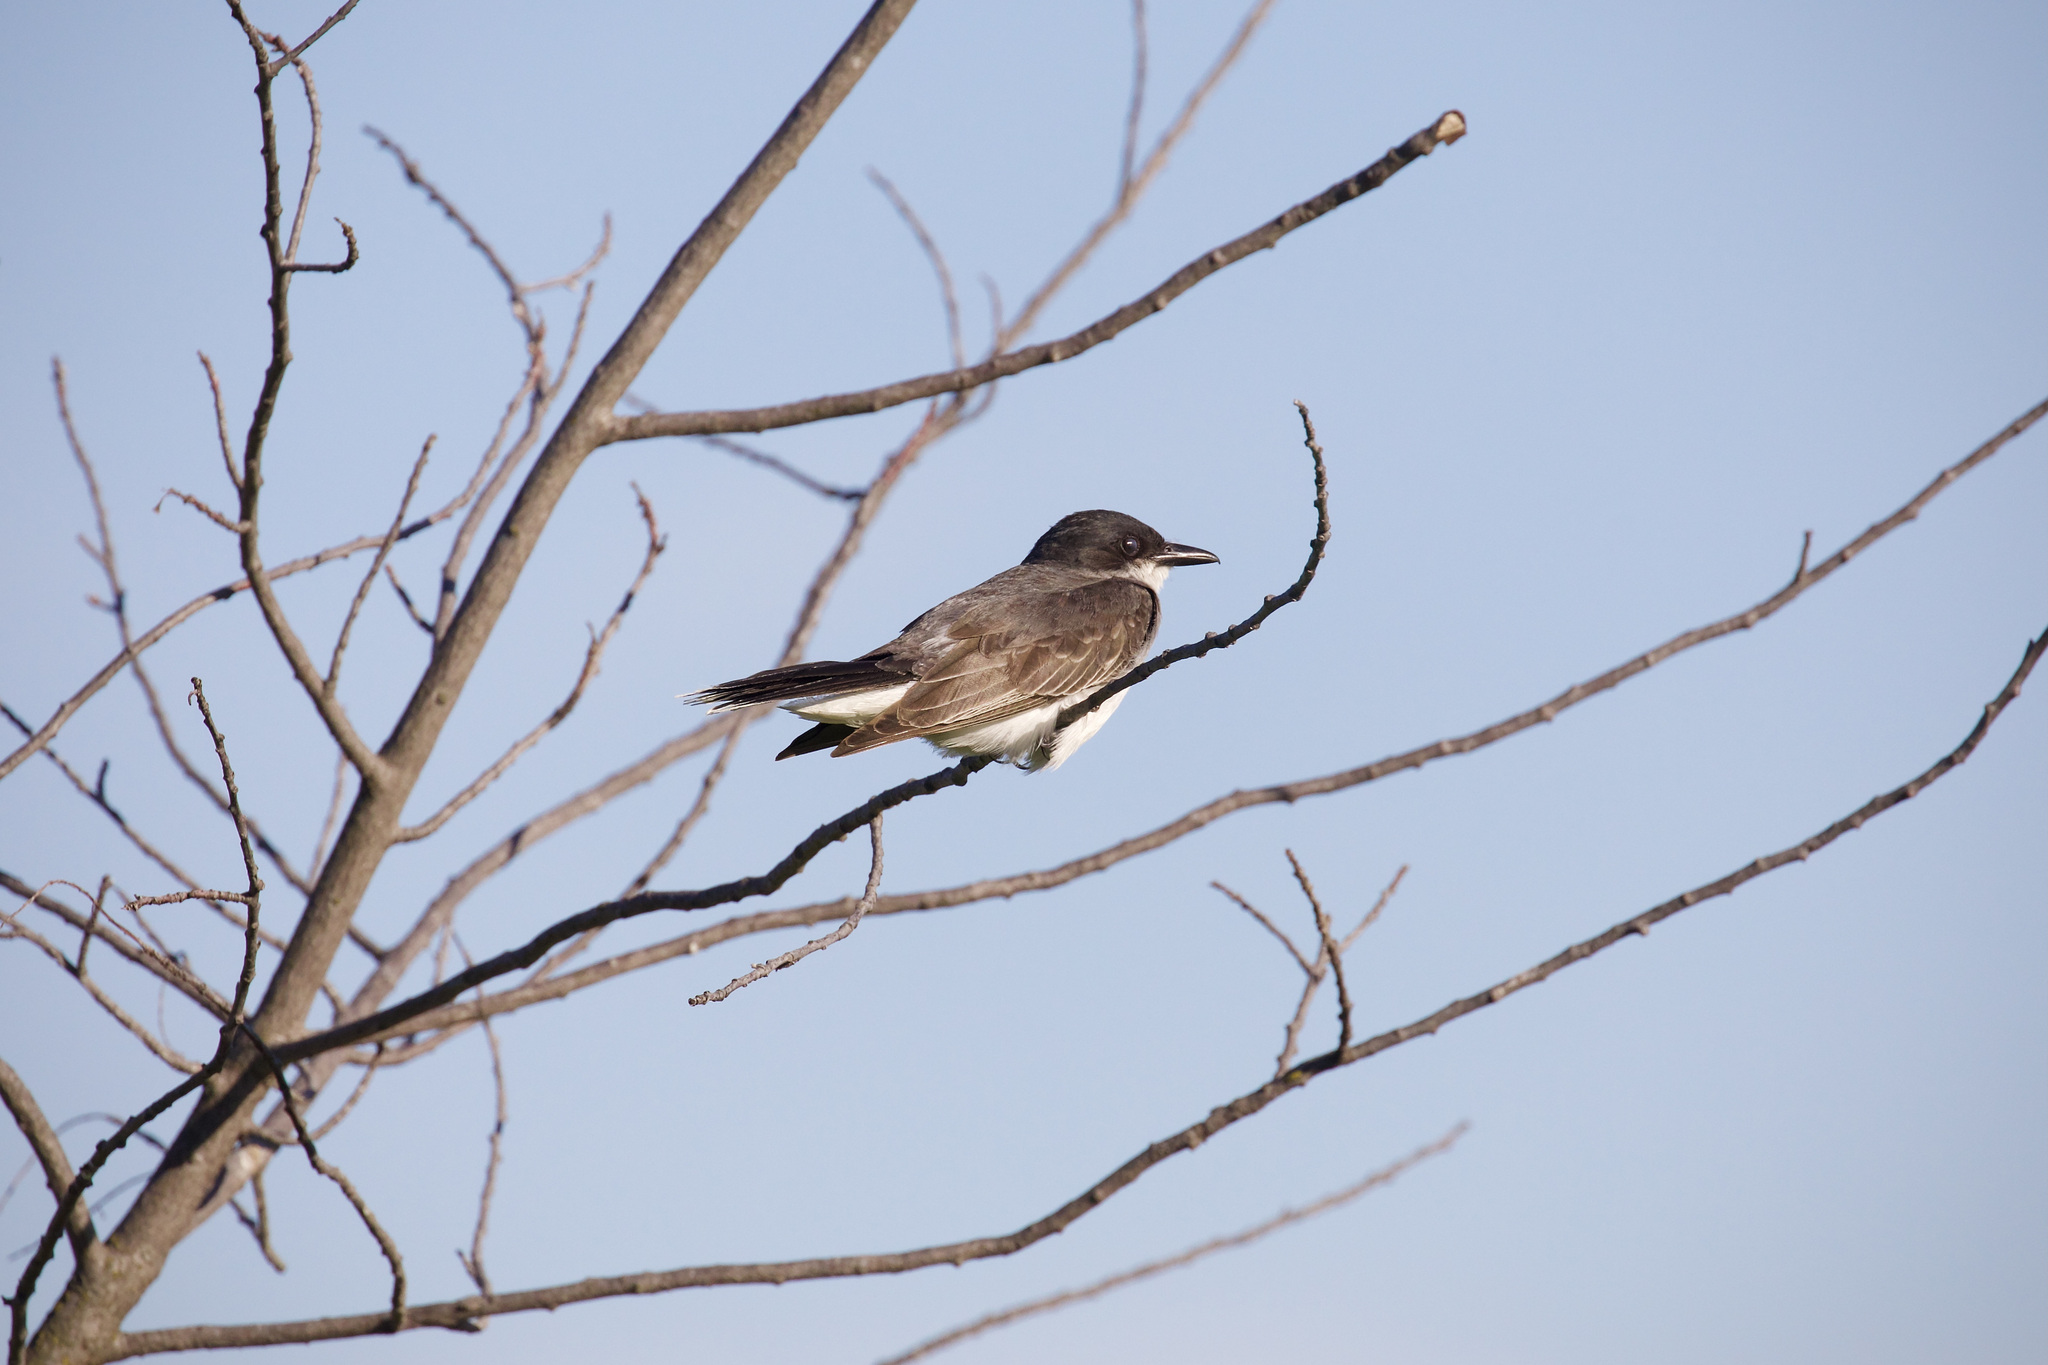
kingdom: Animalia
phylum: Chordata
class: Aves
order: Passeriformes
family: Tyrannidae
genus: Tyrannus
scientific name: Tyrannus tyrannus
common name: Eastern kingbird
